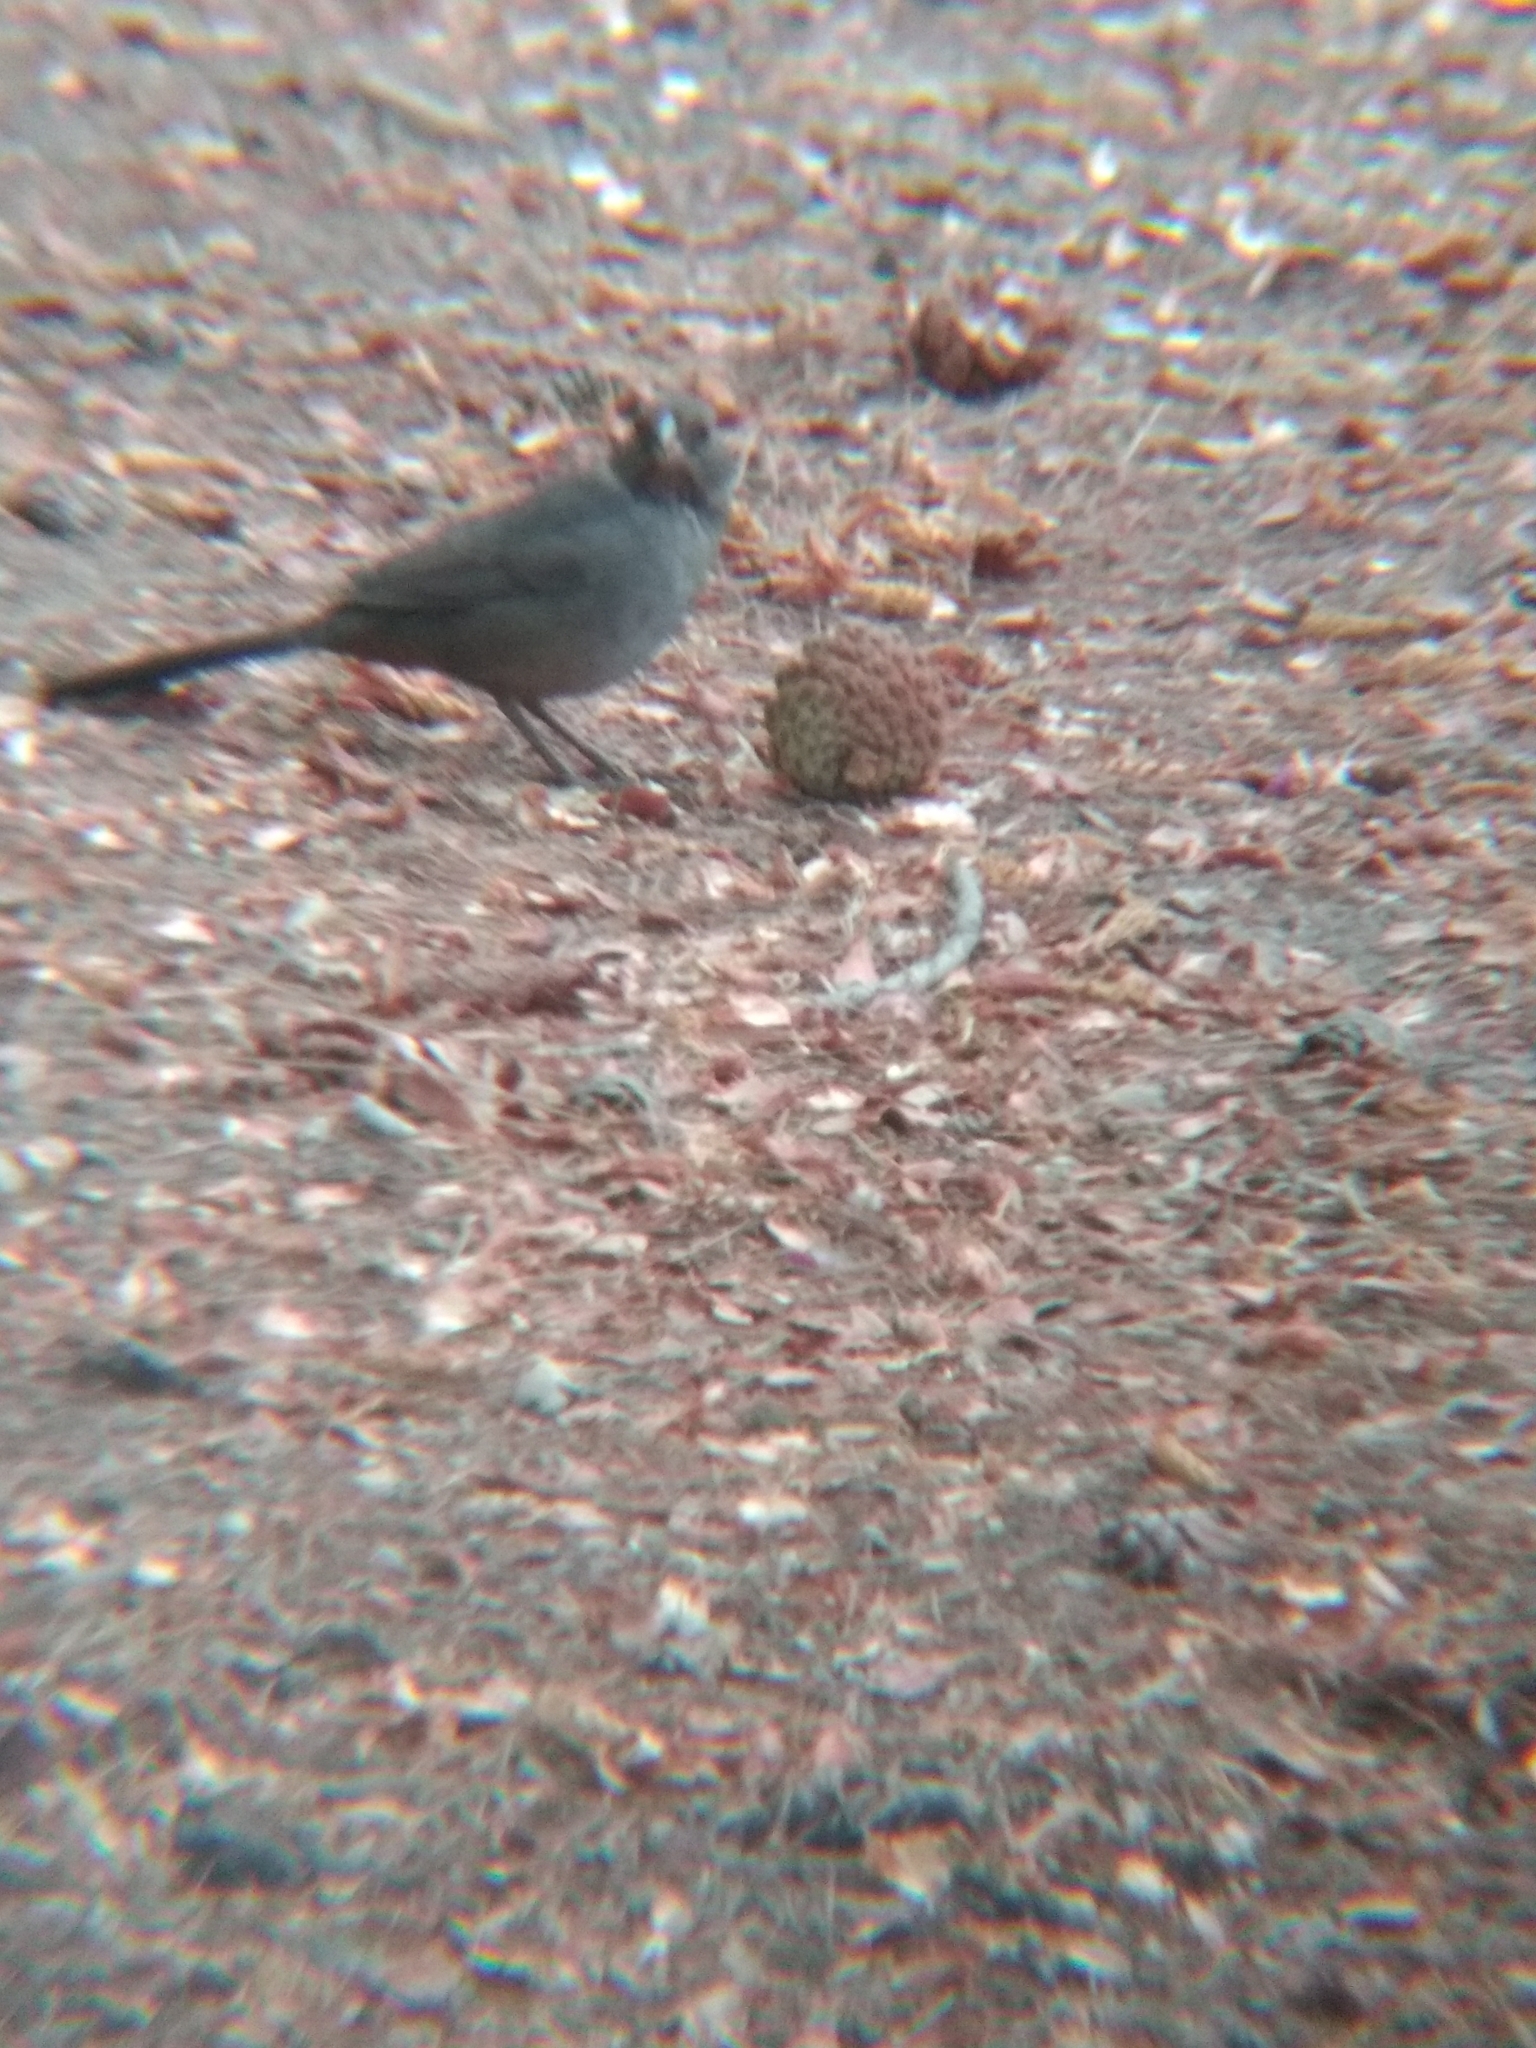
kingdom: Animalia
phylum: Chordata
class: Aves
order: Passeriformes
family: Passerellidae
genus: Melozone
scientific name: Melozone crissalis
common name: California towhee
